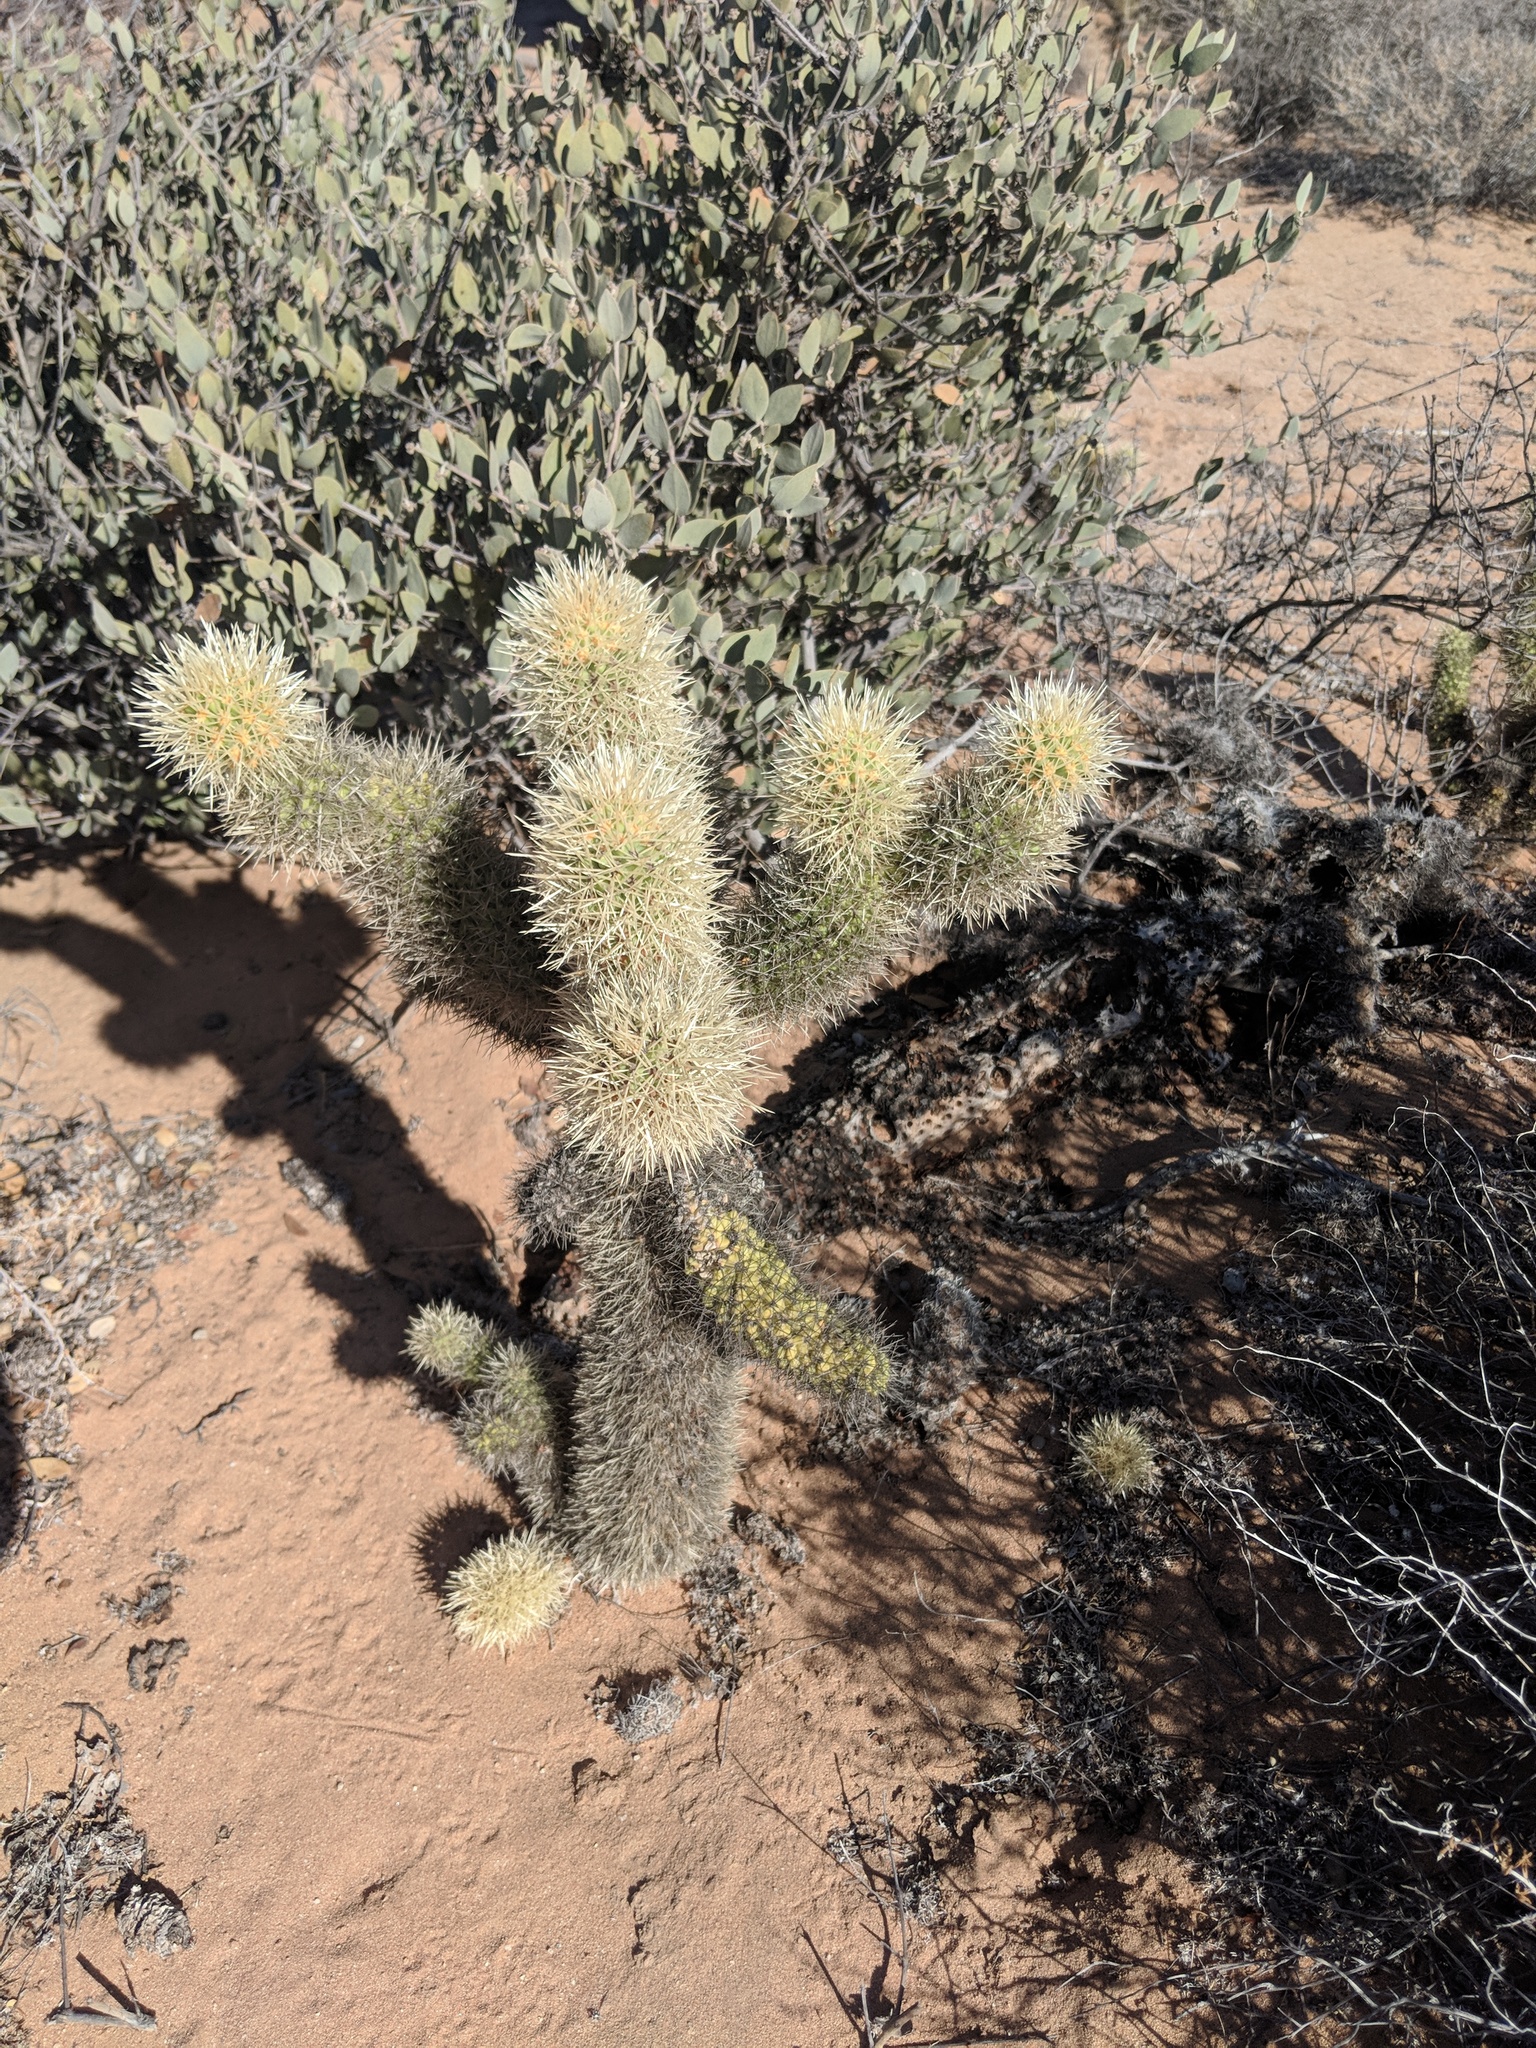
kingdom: Plantae
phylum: Tracheophyta
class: Magnoliopsida
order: Caryophyllales
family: Cactaceae
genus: Cylindropuntia
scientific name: Cylindropuntia fosbergii
